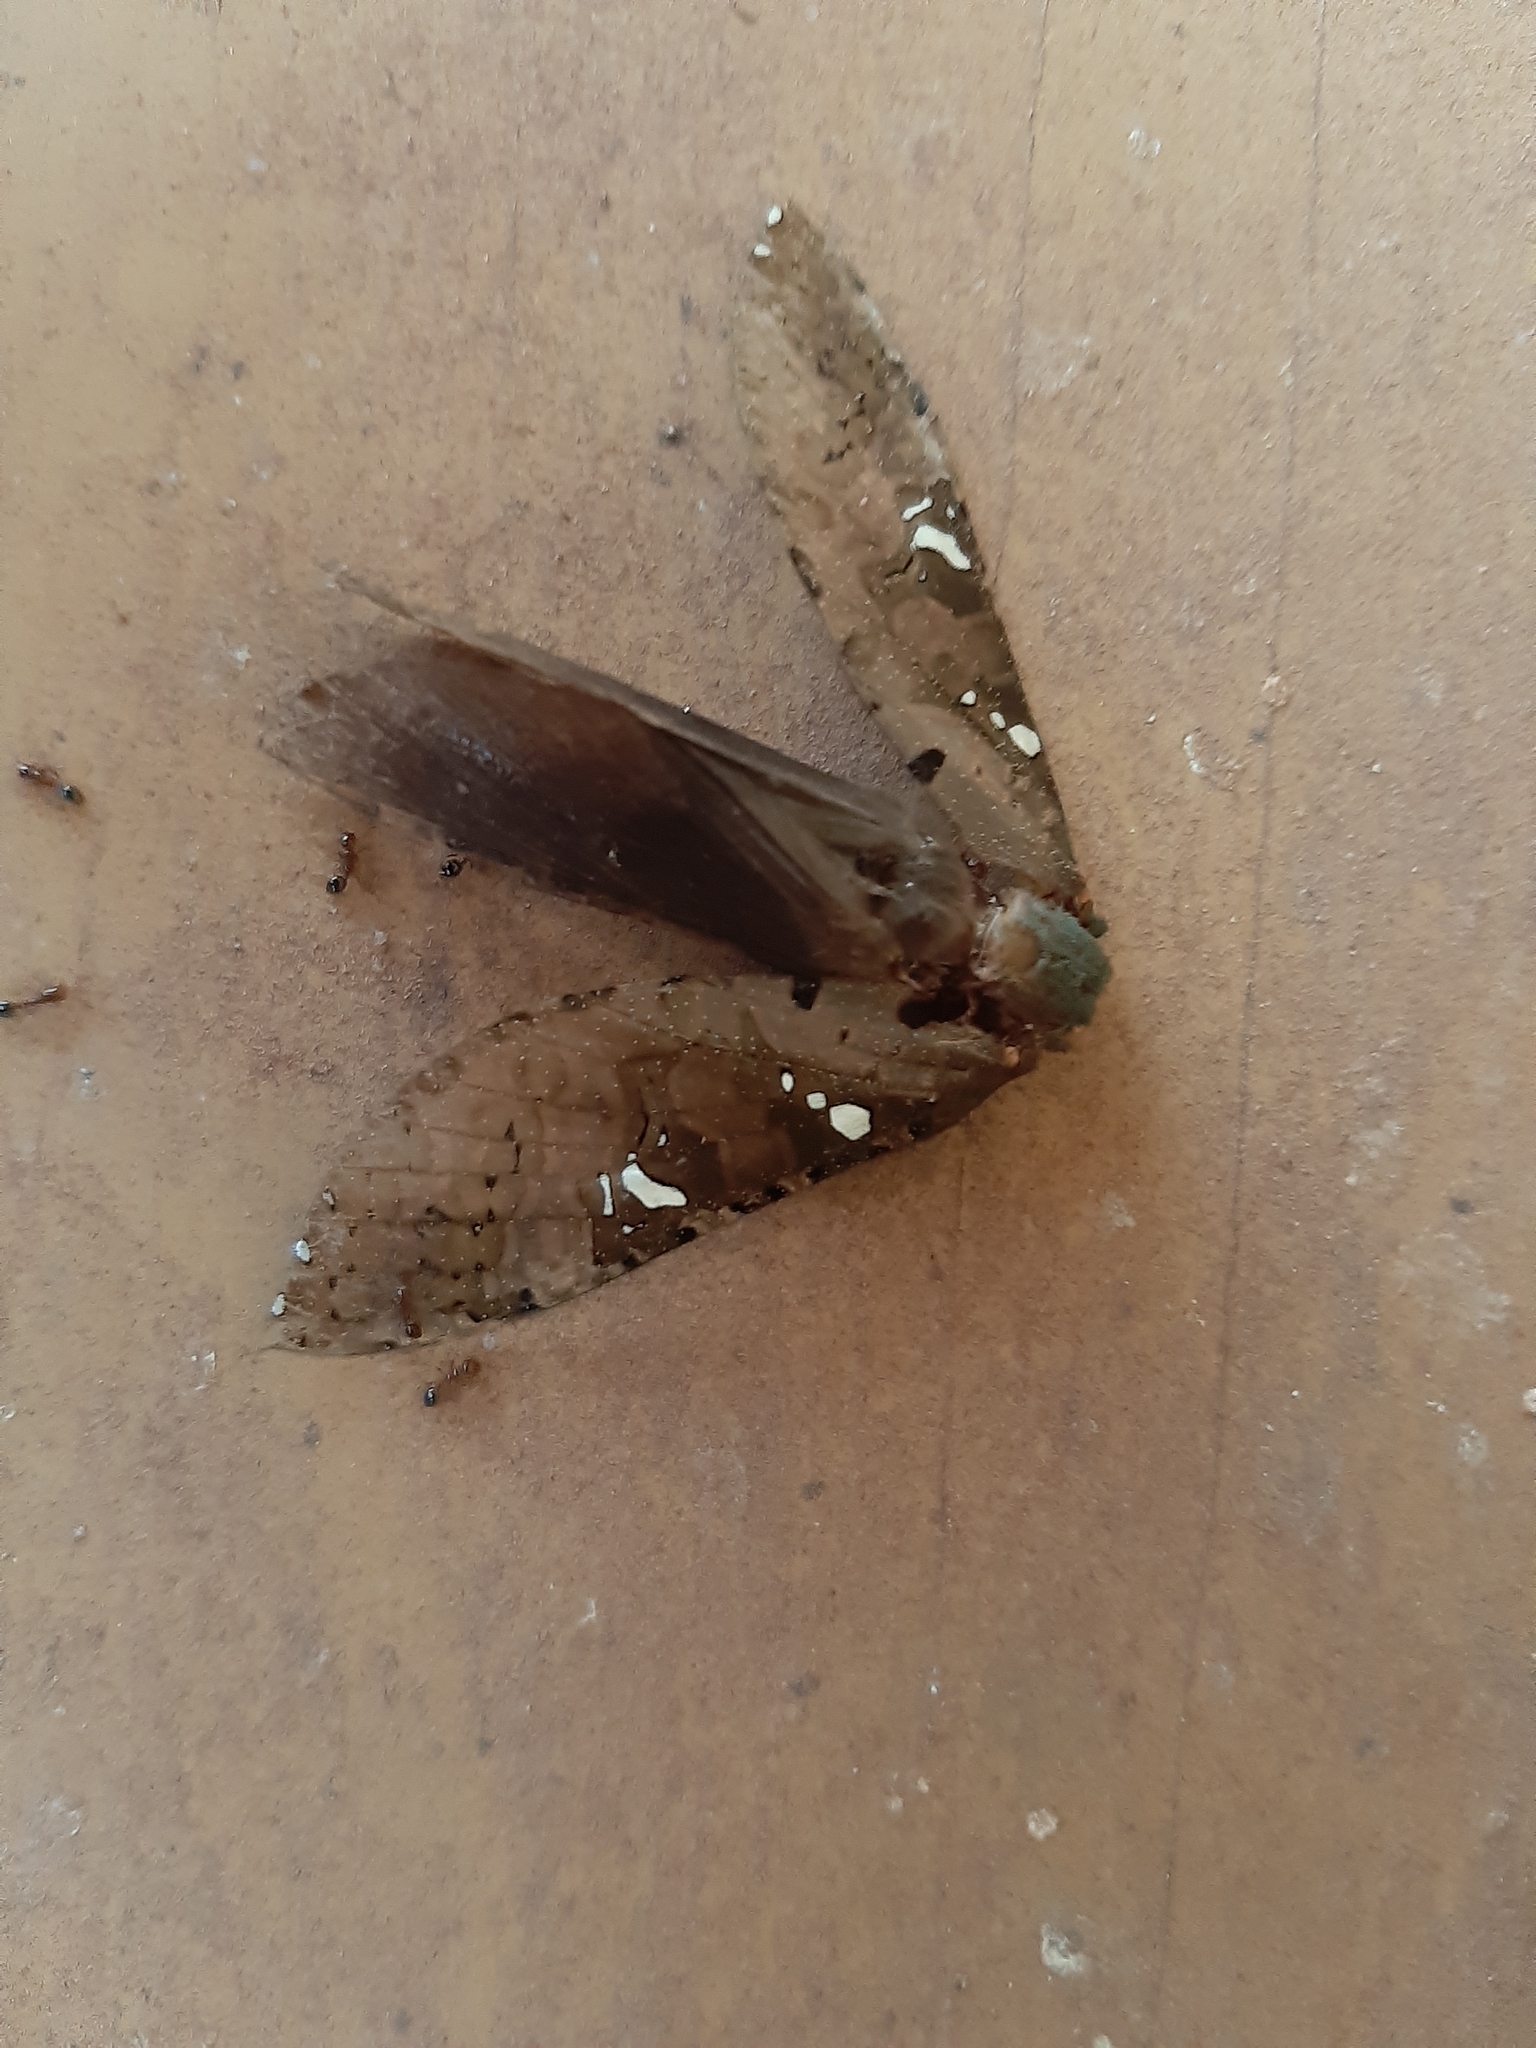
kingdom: Animalia
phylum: Arthropoda
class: Insecta
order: Lepidoptera
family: Hepialidae
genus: Walkeriella
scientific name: Walkeriella miraculosa
